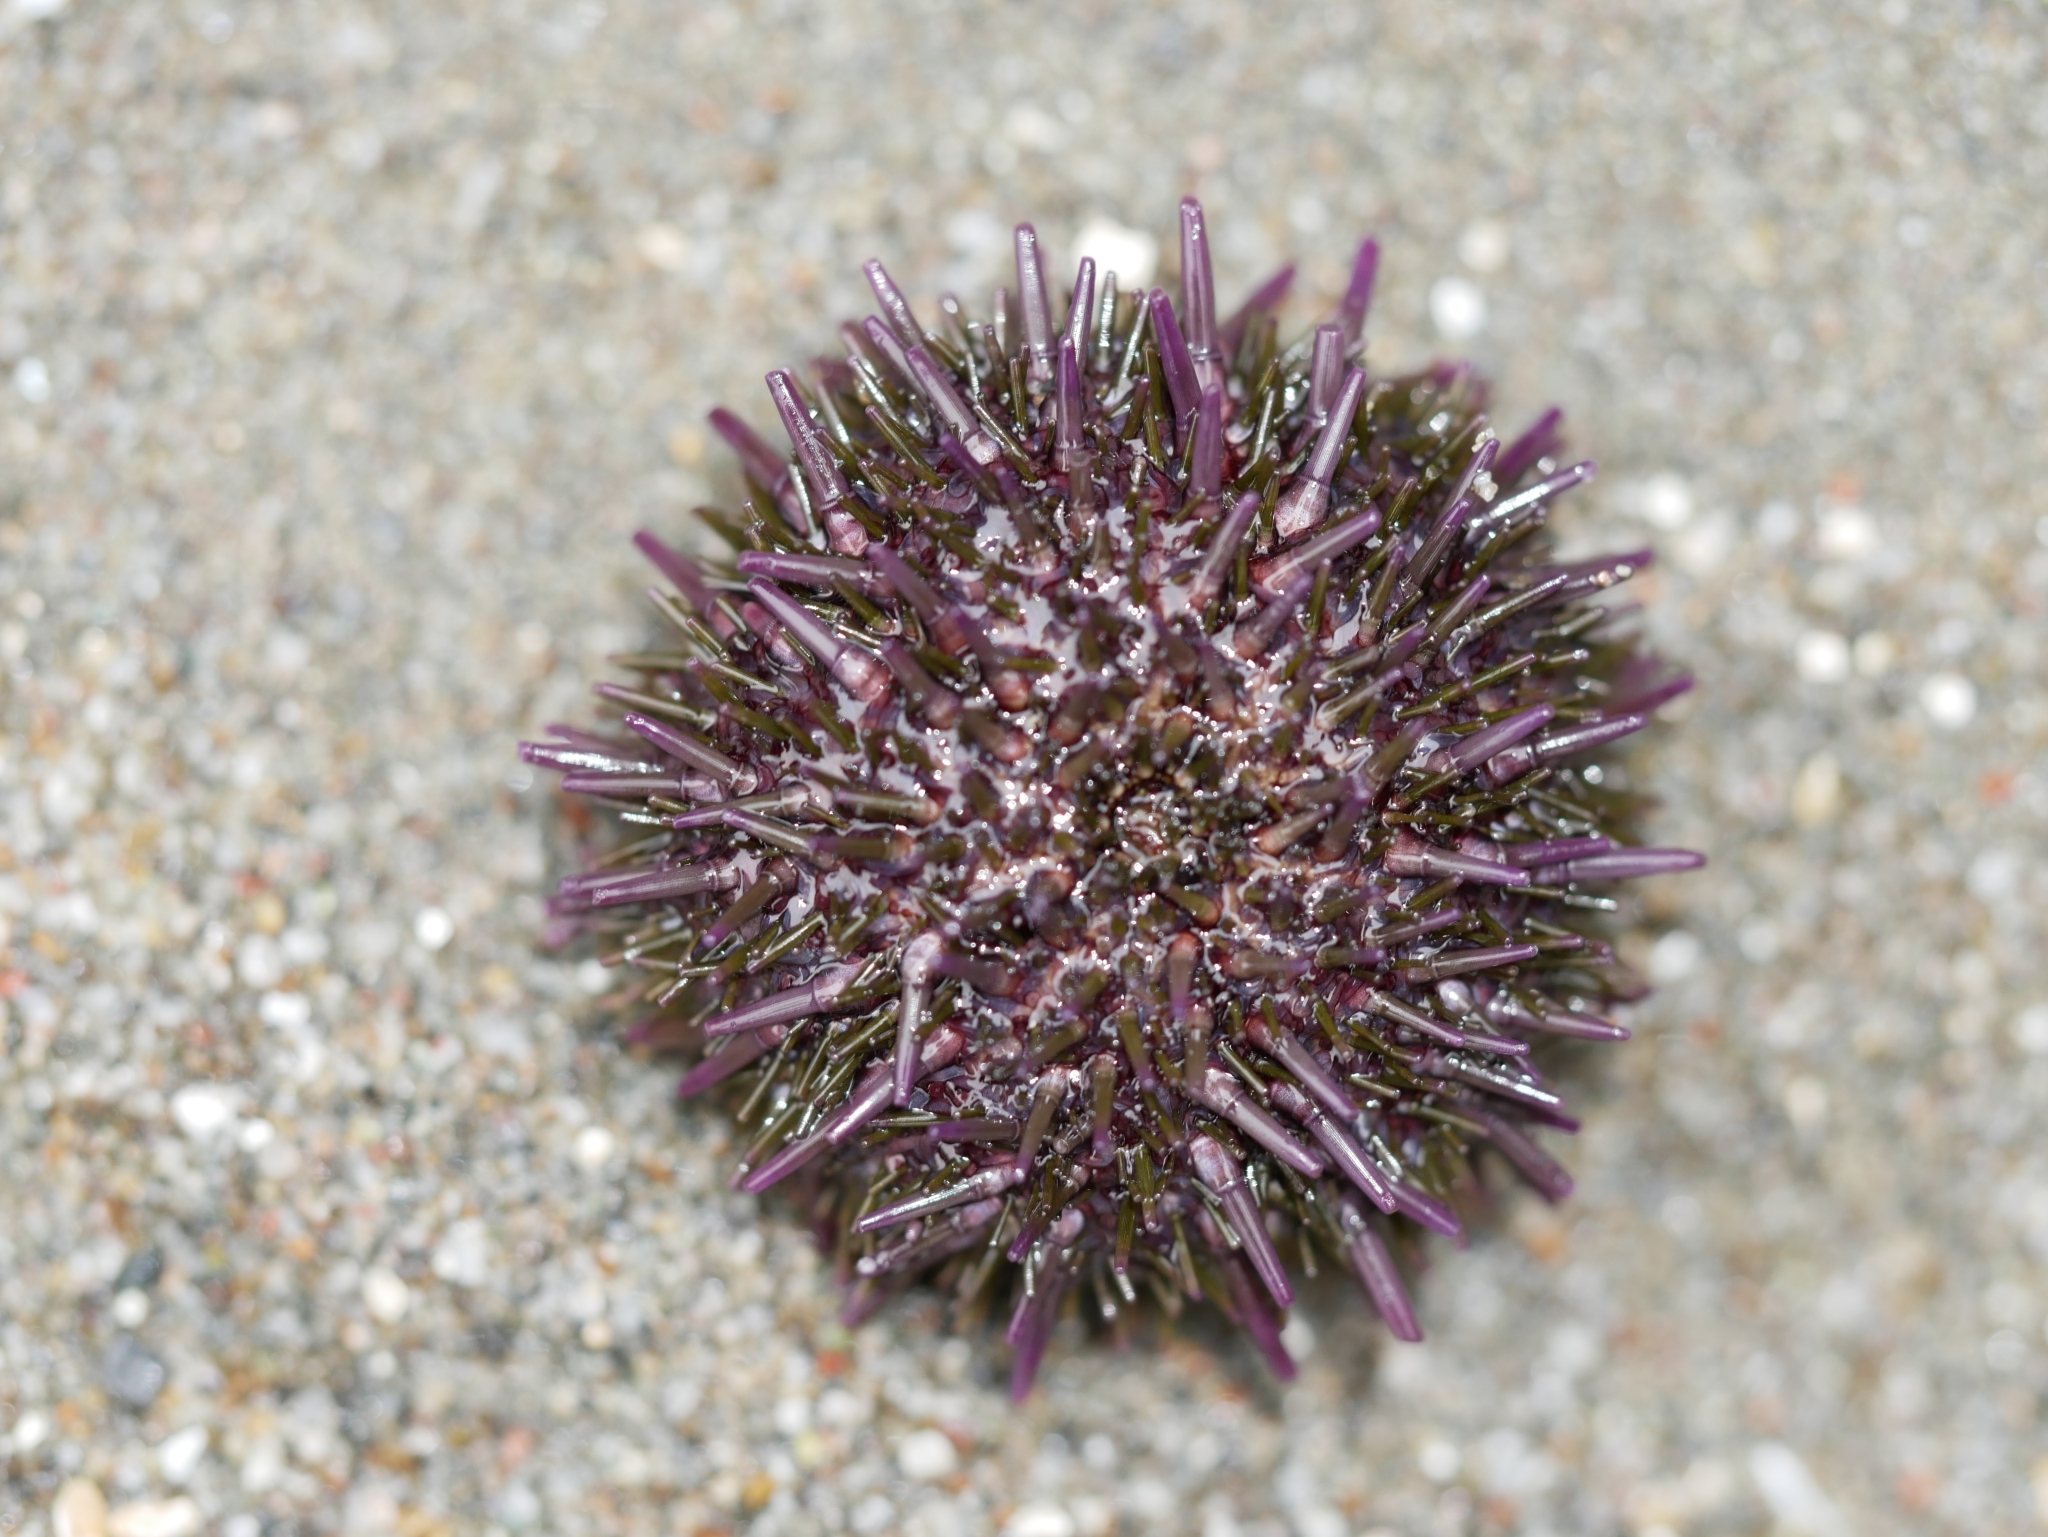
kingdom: Animalia
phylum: Echinodermata
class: Echinoidea
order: Camarodonta
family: Strongylocentrotidae
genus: Strongylocentrotus
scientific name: Strongylocentrotus purpuratus
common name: Purple sea urchin
